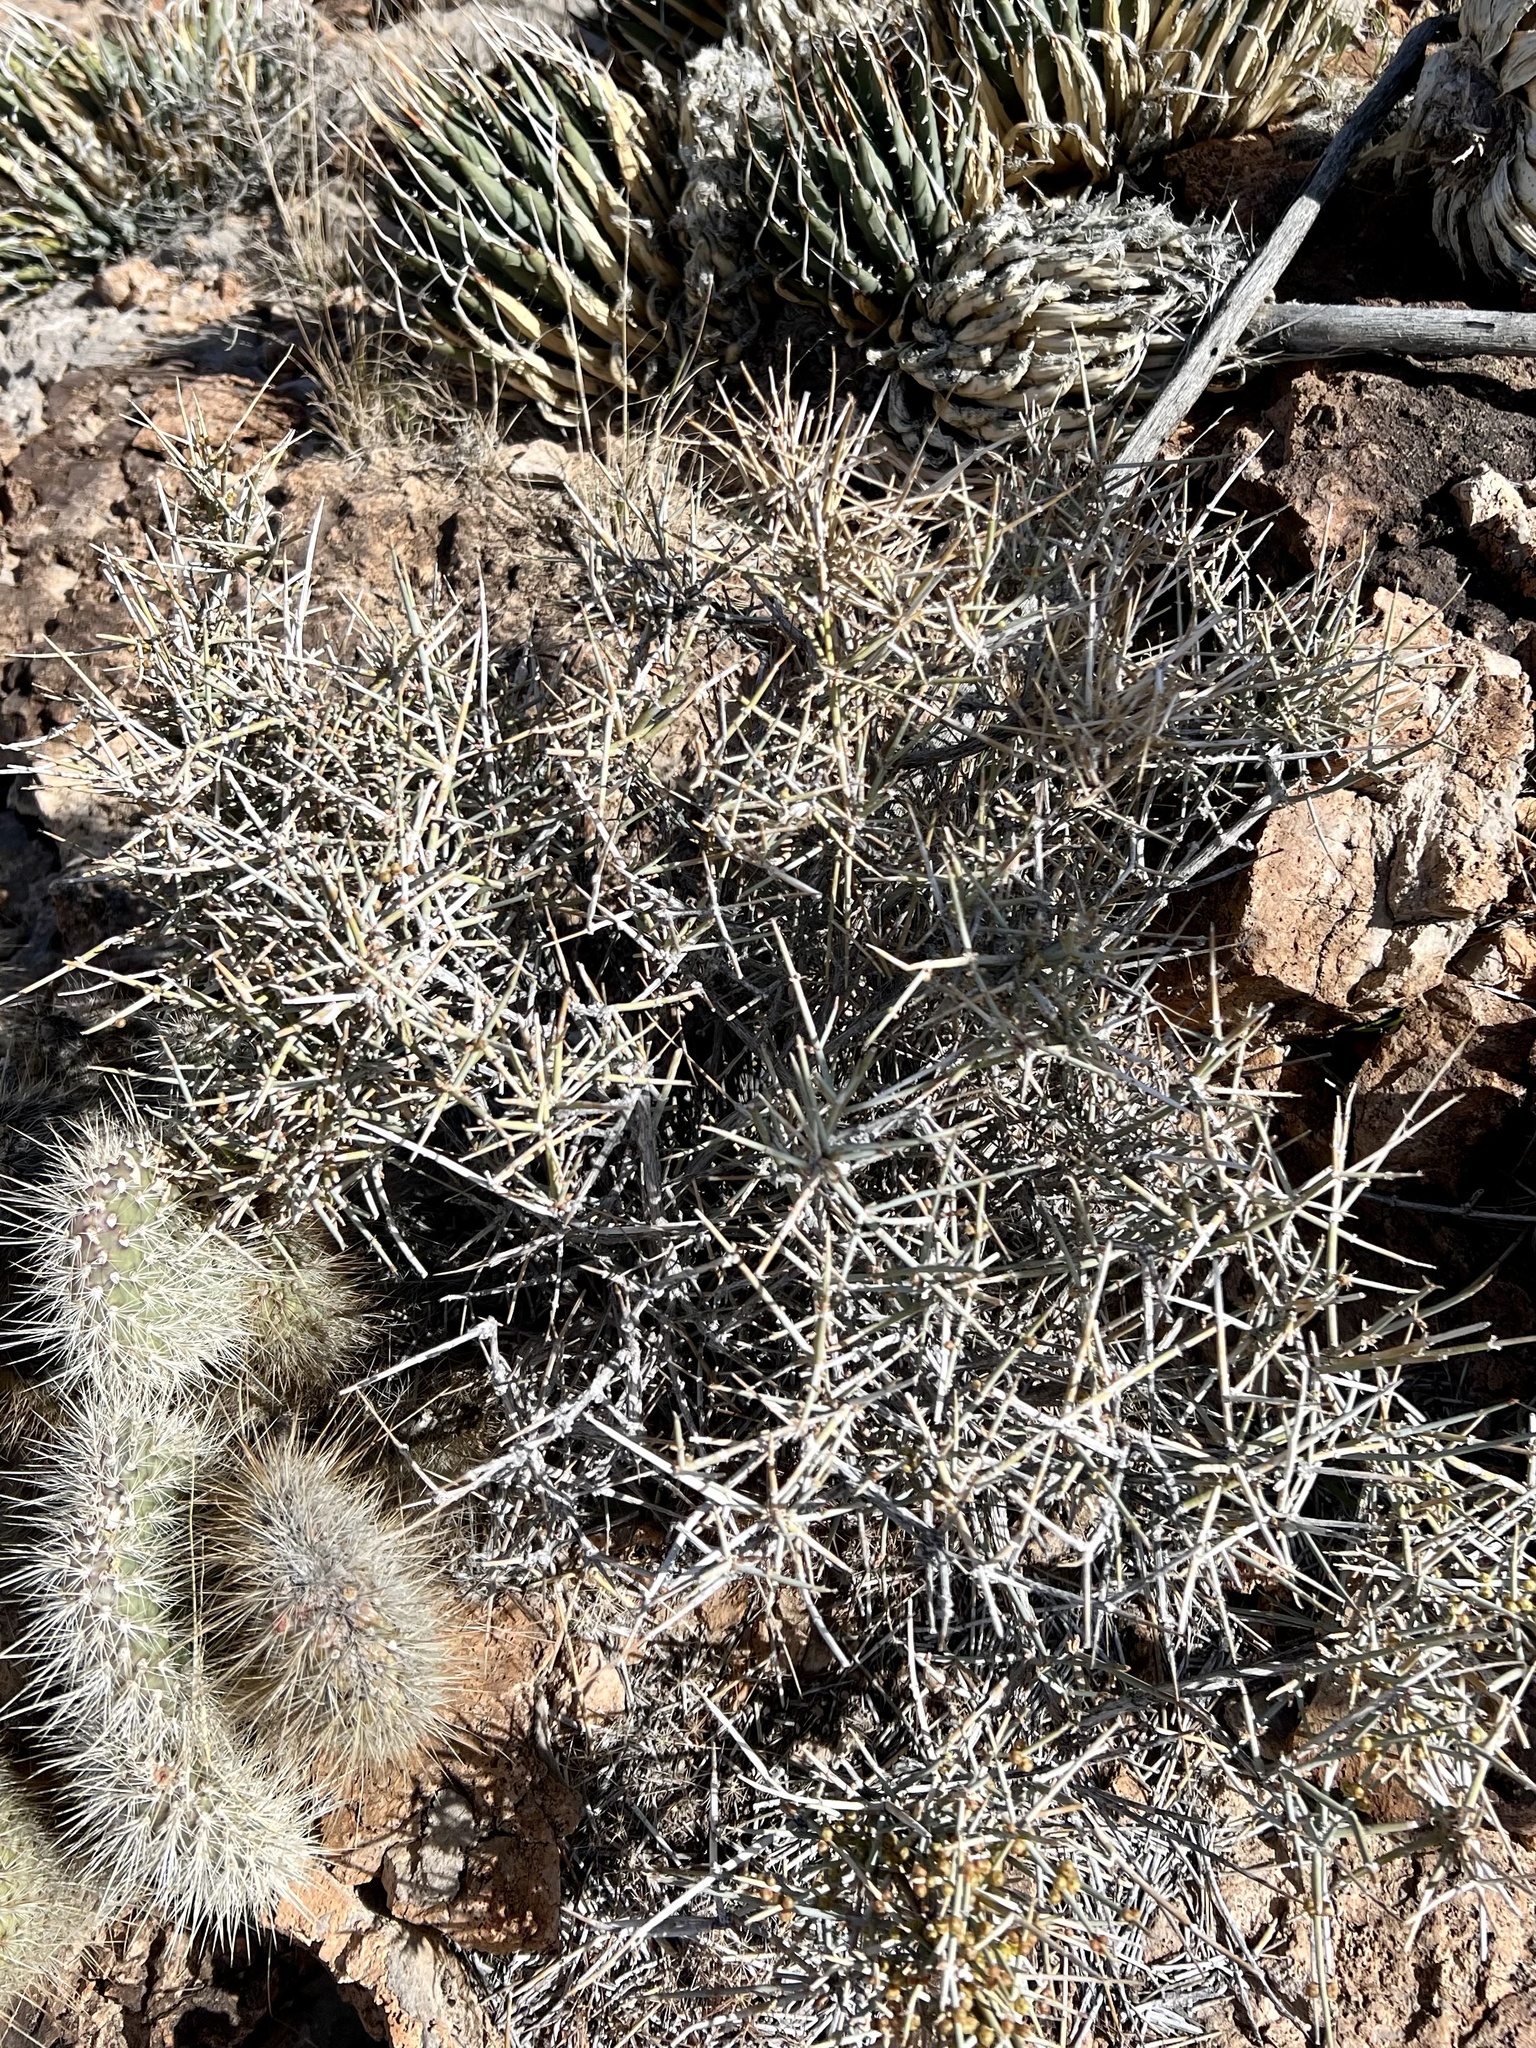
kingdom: Plantae
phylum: Tracheophyta
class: Gnetopsida
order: Ephedrales
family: Ephedraceae
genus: Ephedra
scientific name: Ephedra nevadensis
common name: Gray ephedra
